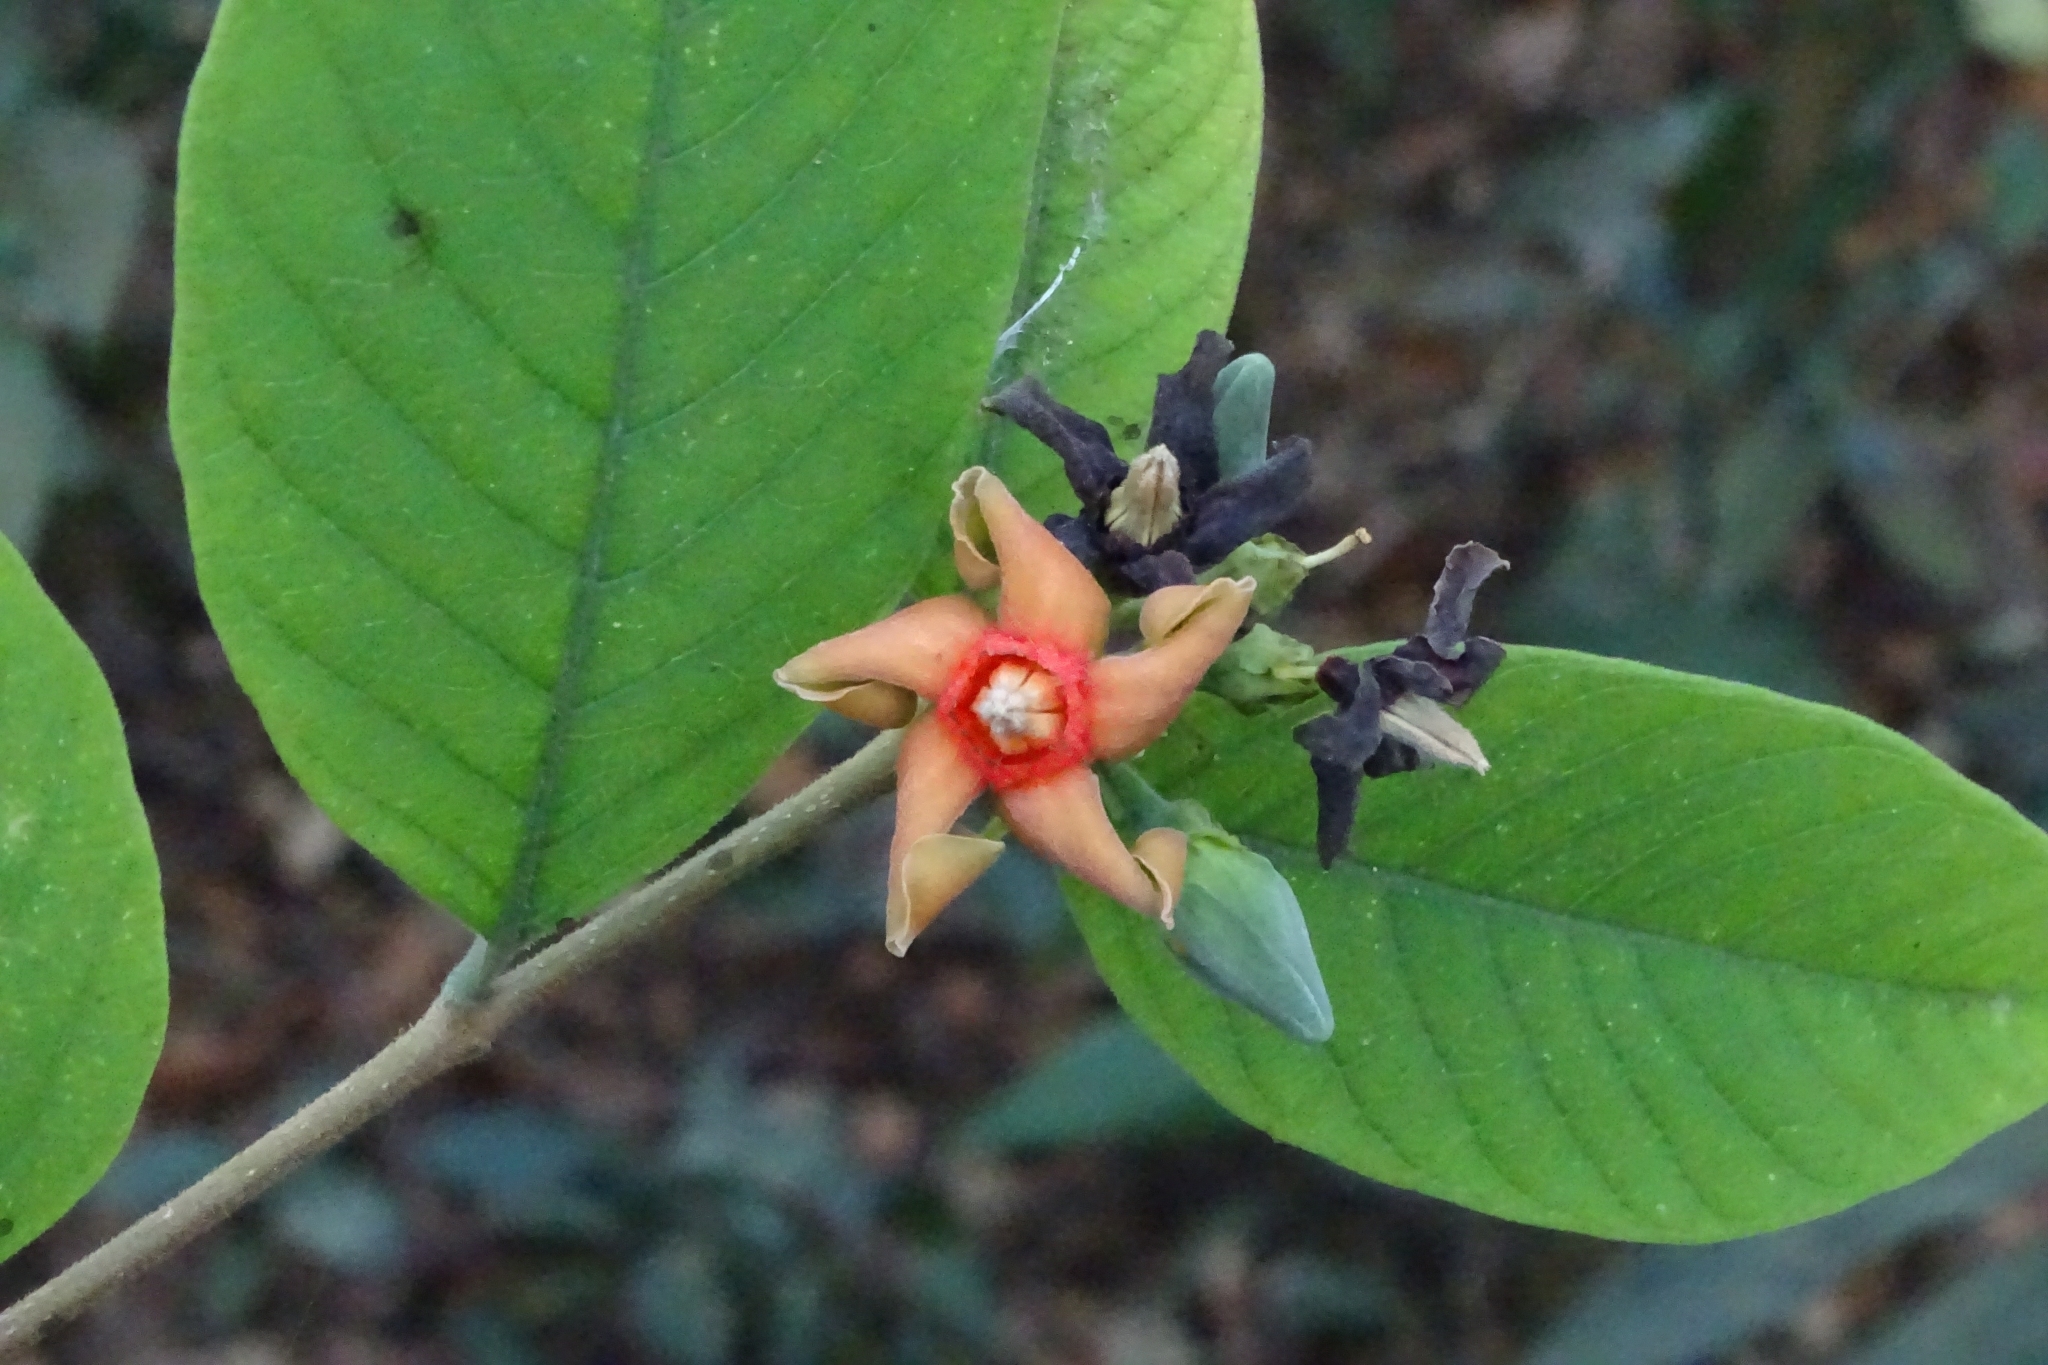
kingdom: Plantae
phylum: Tracheophyta
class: Magnoliopsida
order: Gentianales
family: Apocynaceae
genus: Wrightia
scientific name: Wrightia arborea
